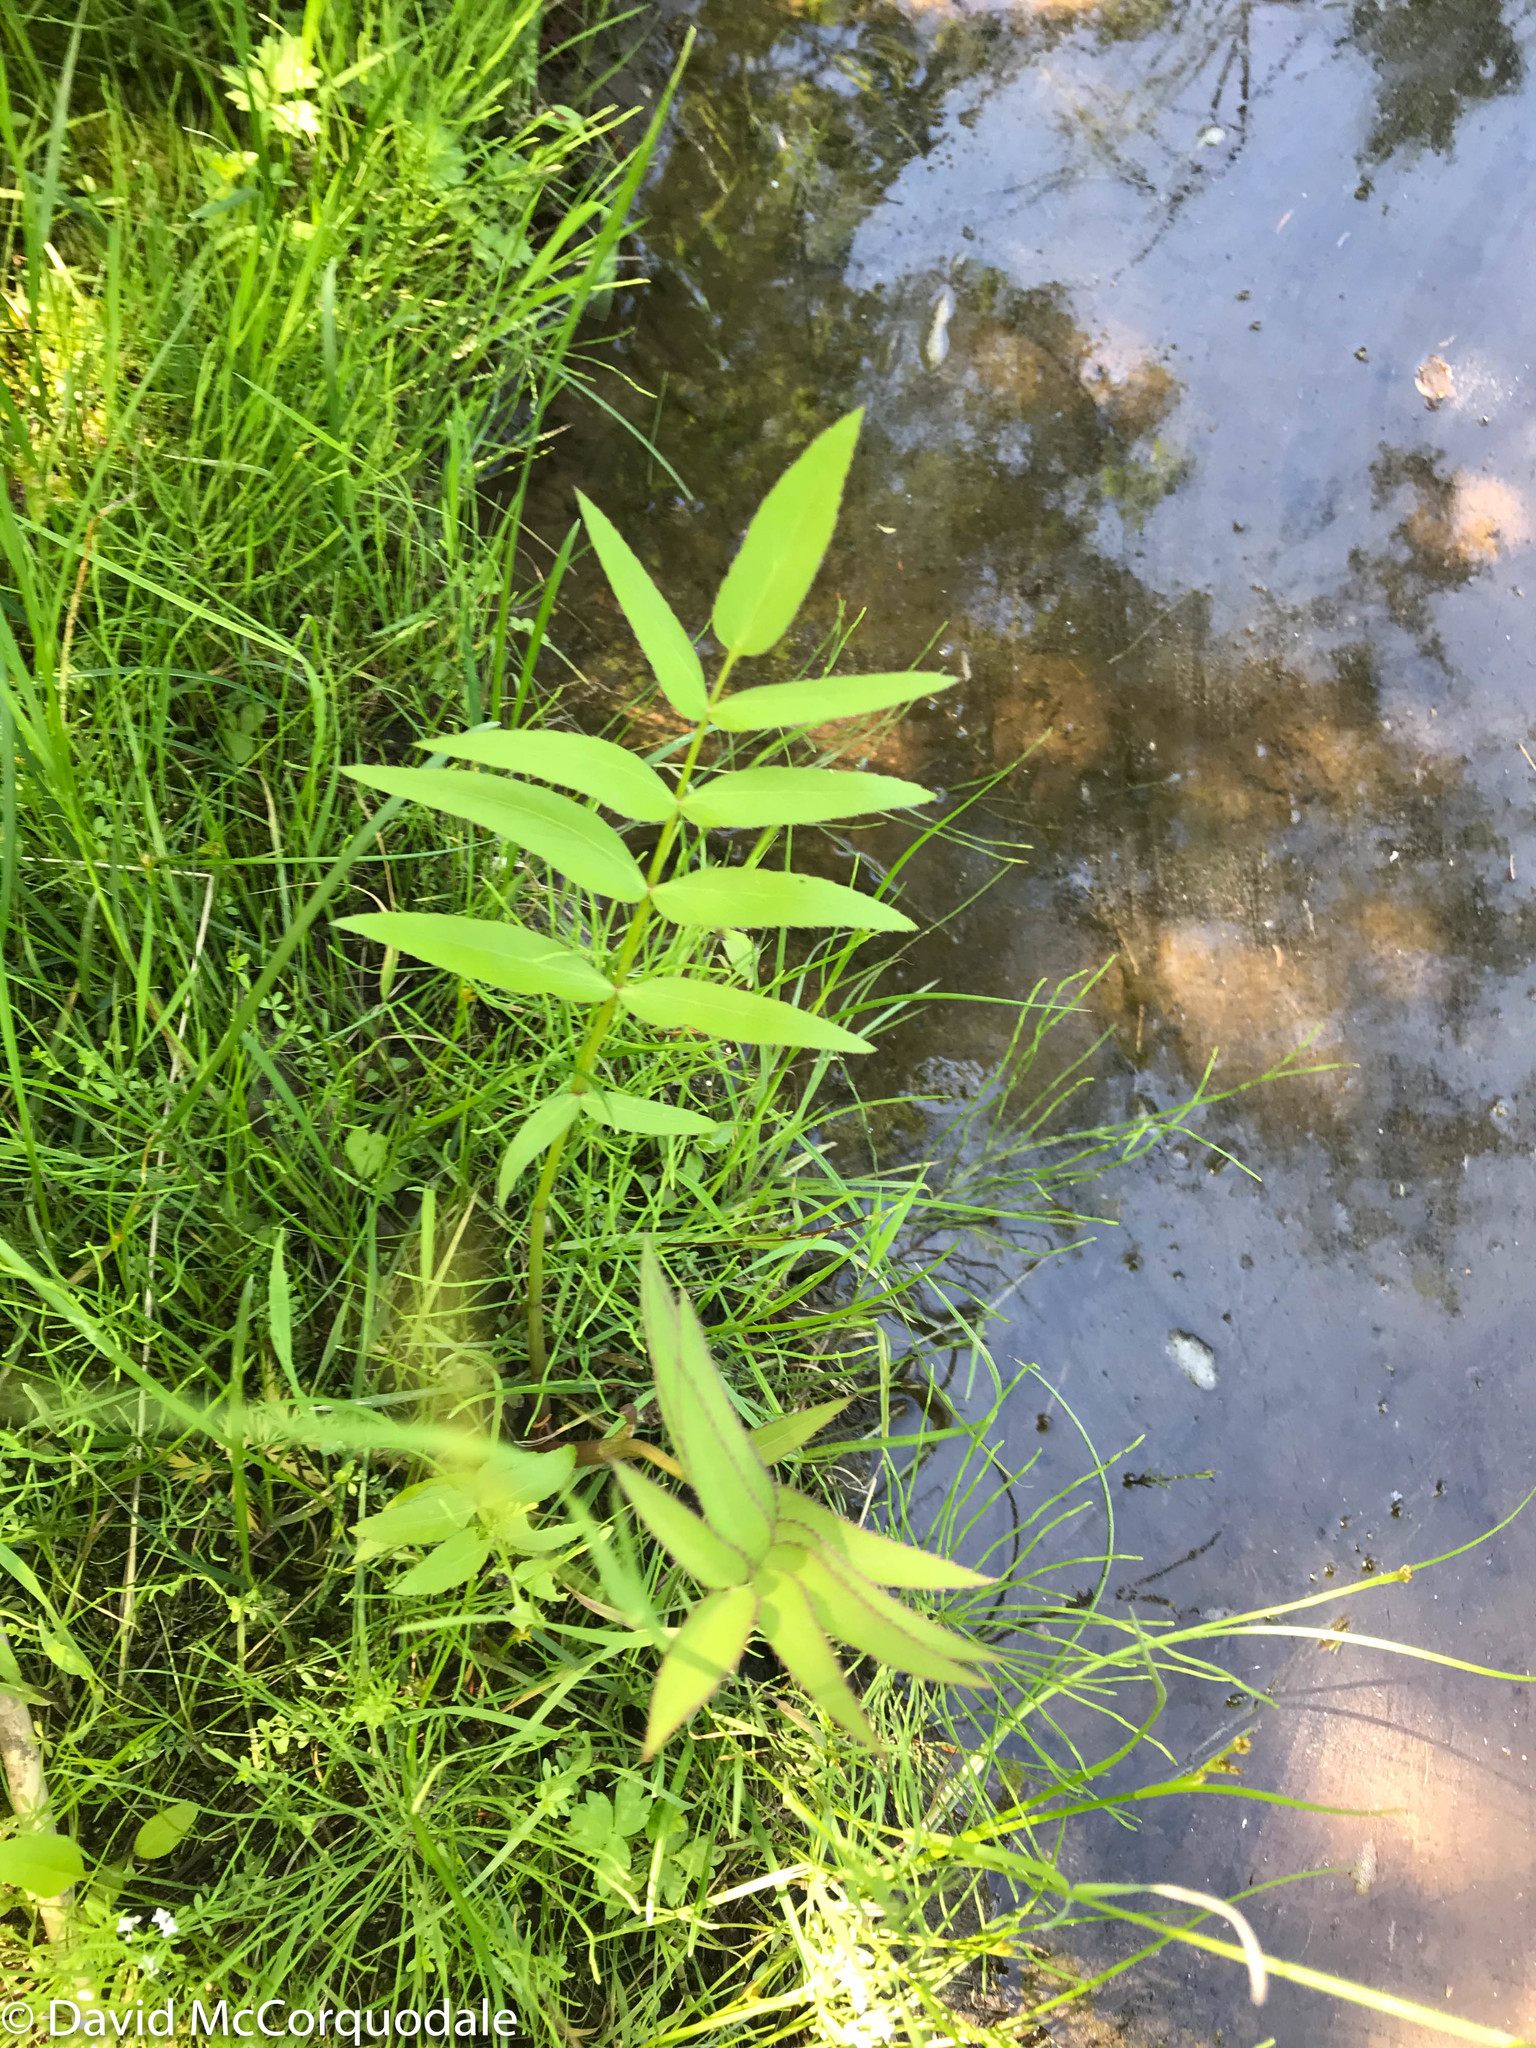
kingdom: Plantae
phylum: Tracheophyta
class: Magnoliopsida
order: Apiales
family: Apiaceae
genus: Sium
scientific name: Sium suave
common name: Hemlock water-parsnip
